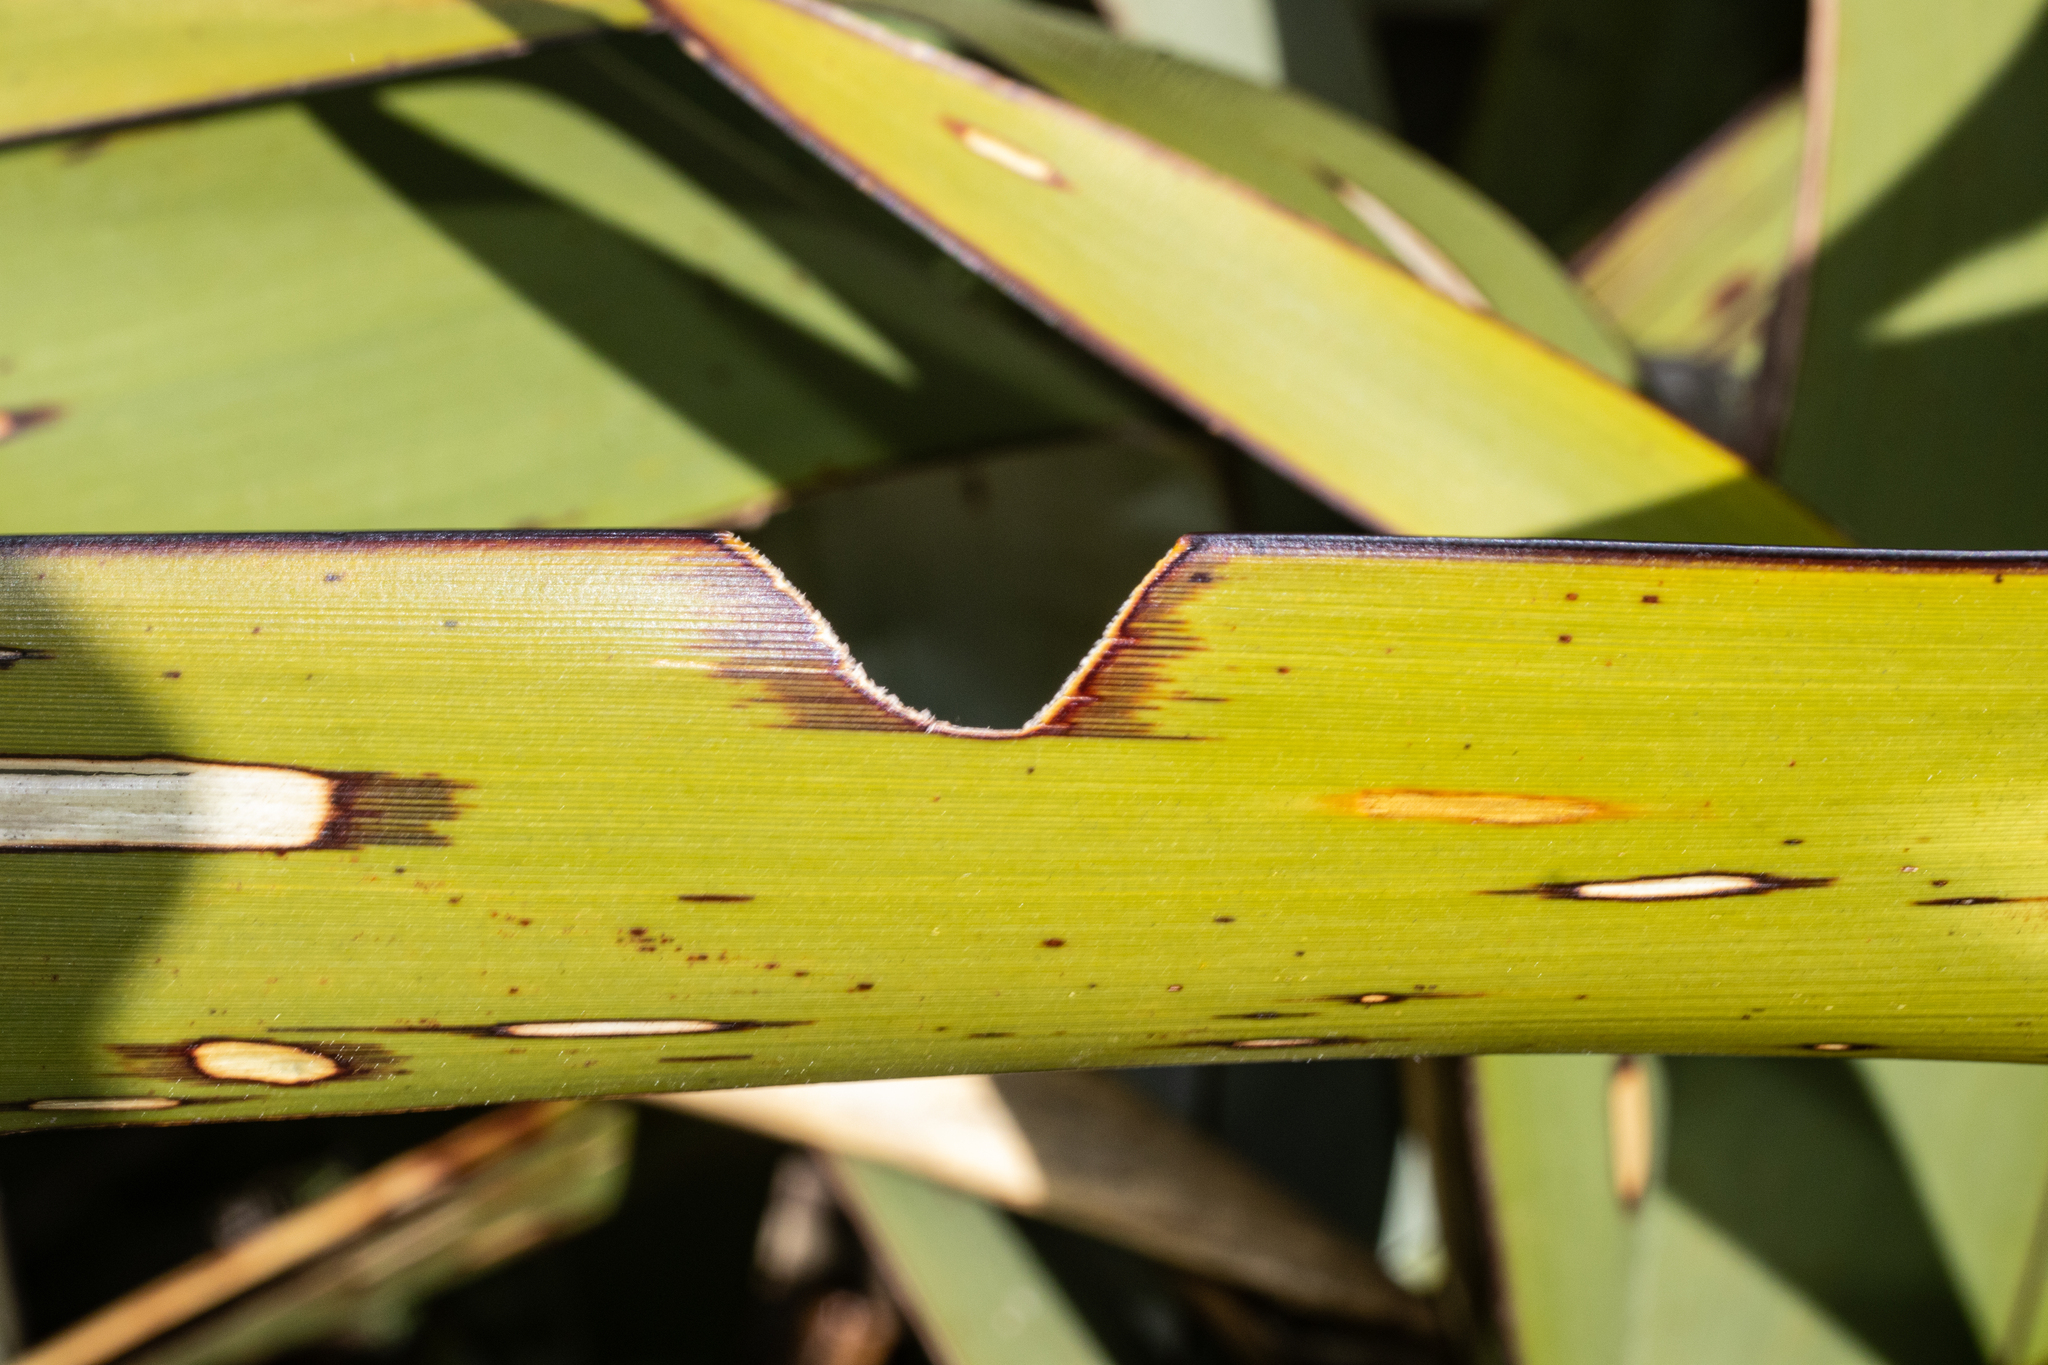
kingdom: Animalia
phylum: Arthropoda
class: Insecta
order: Lepidoptera
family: Noctuidae
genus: Ichneutica
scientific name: Ichneutica
